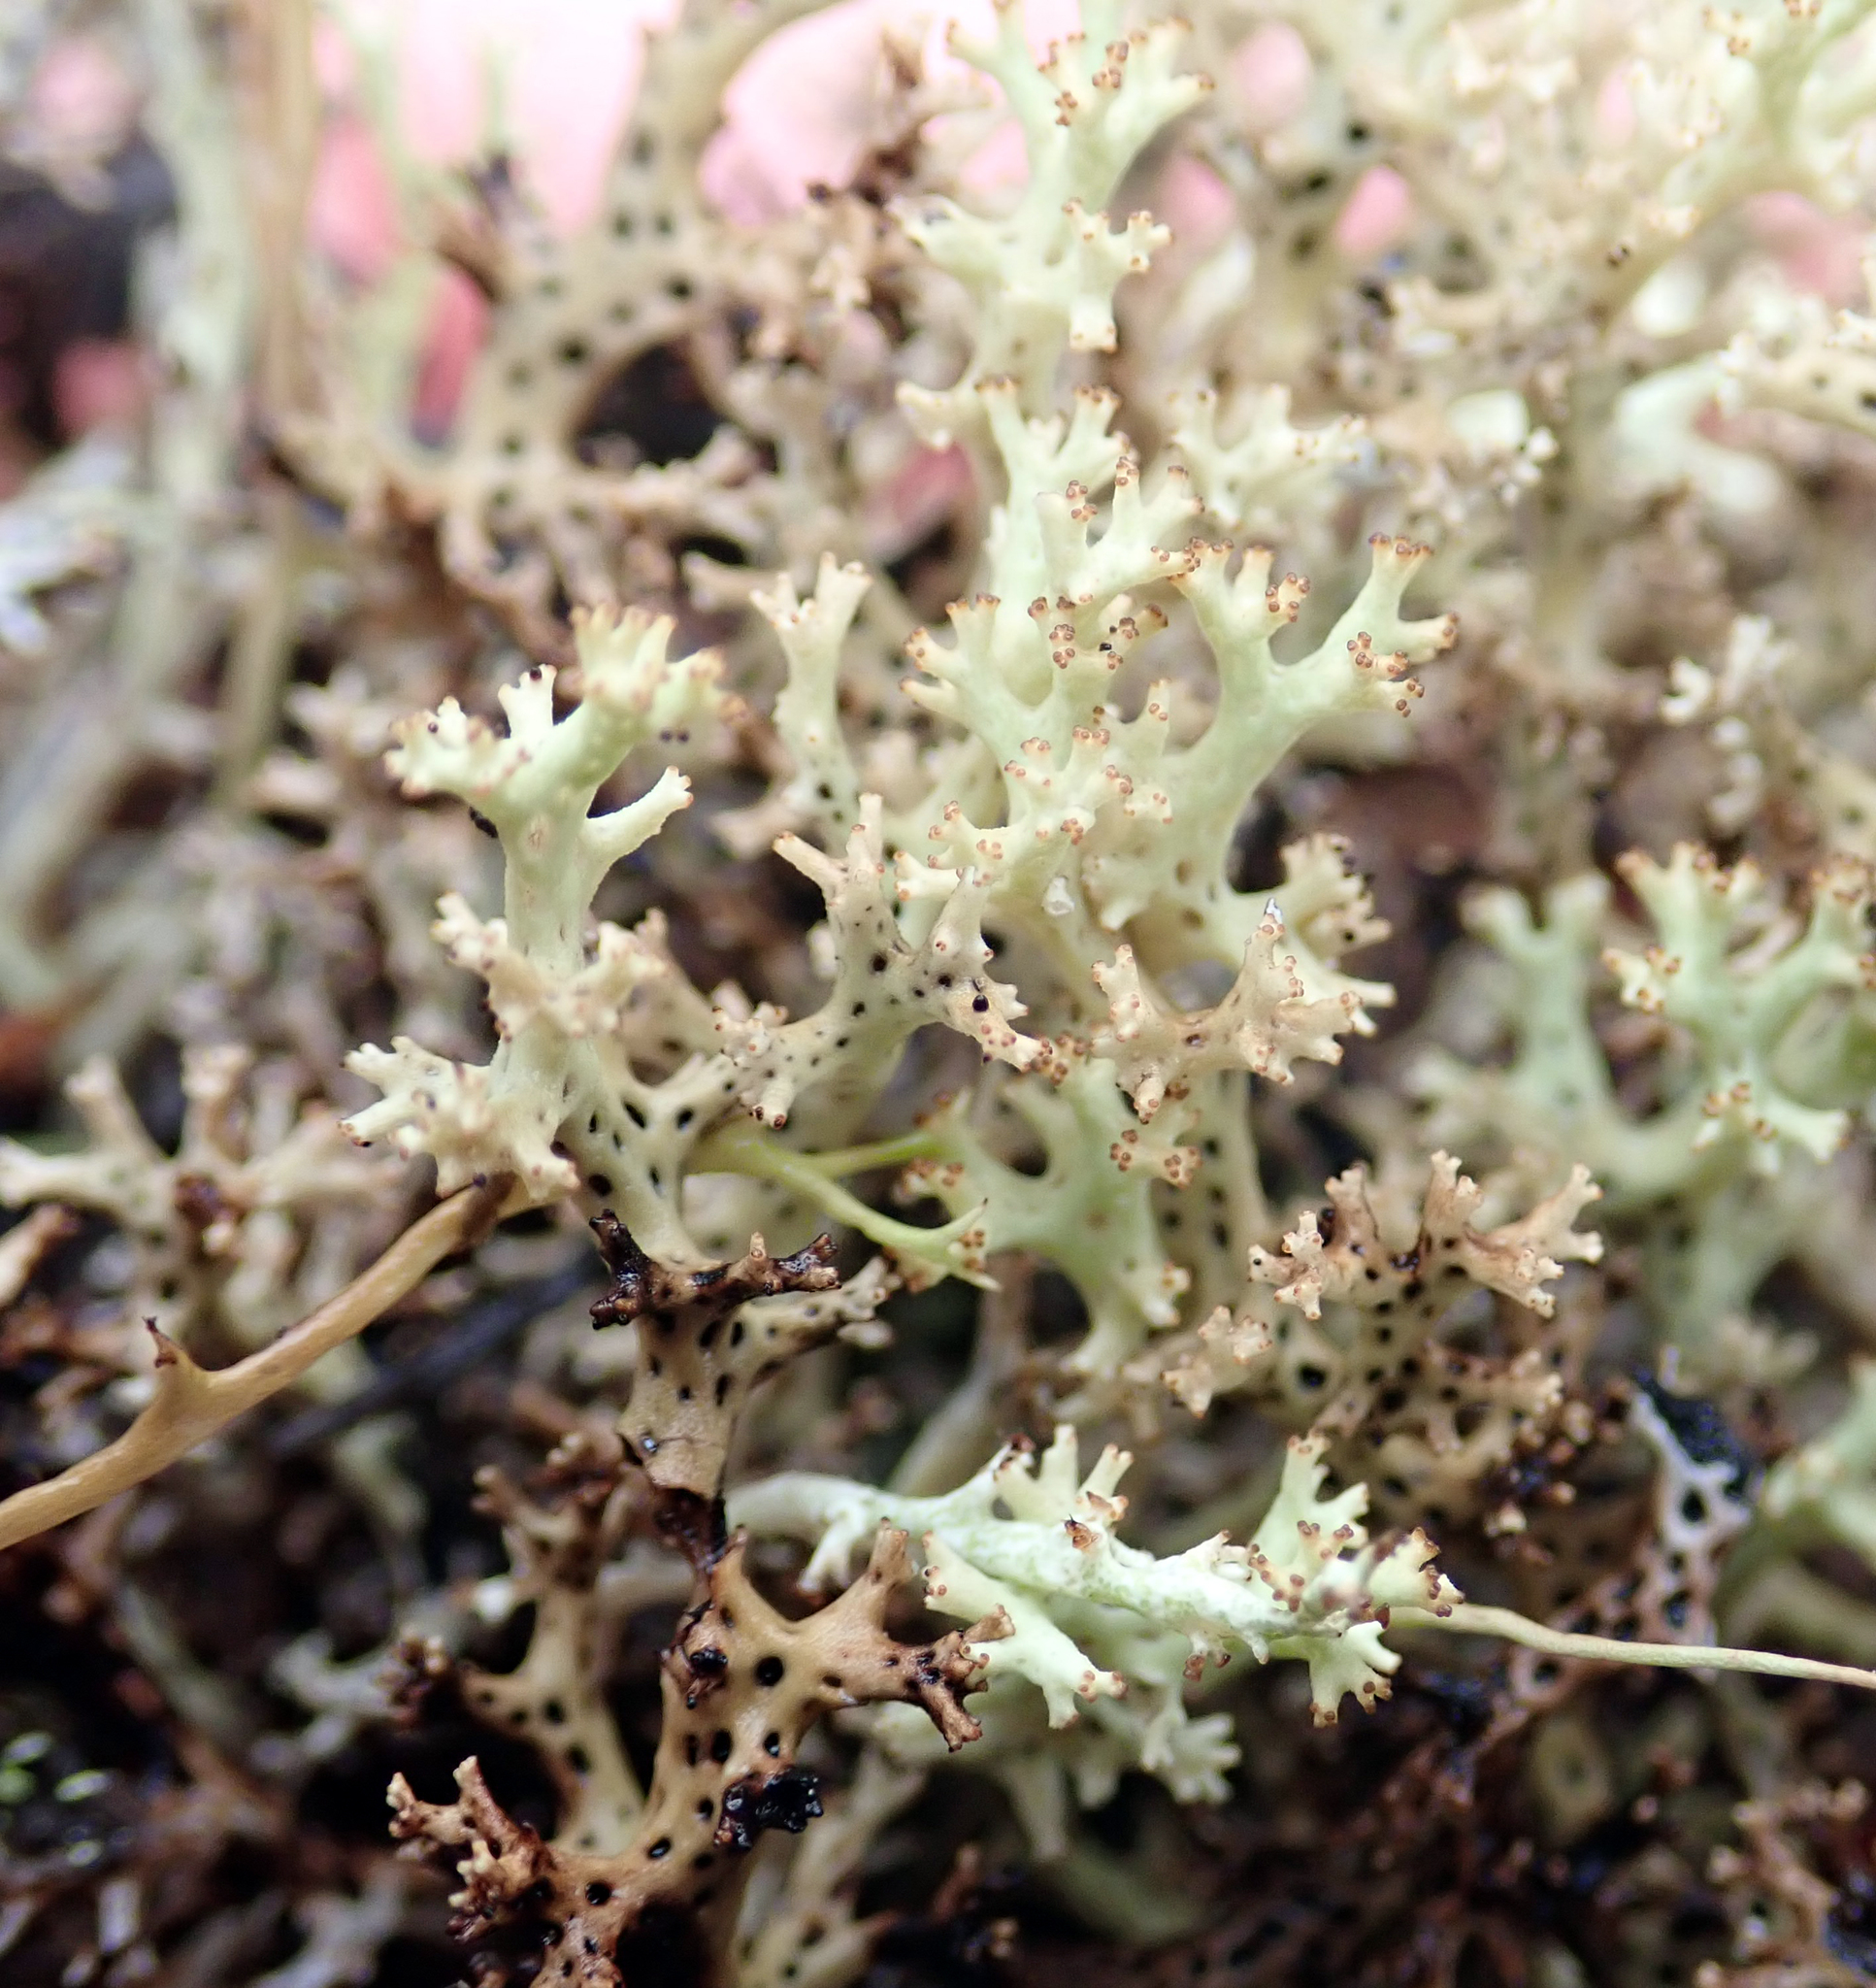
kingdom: Fungi
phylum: Ascomycota
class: Lecanoromycetes
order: Lecanorales
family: Cladoniaceae
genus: Rexiella
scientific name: Rexiella sullivanii
